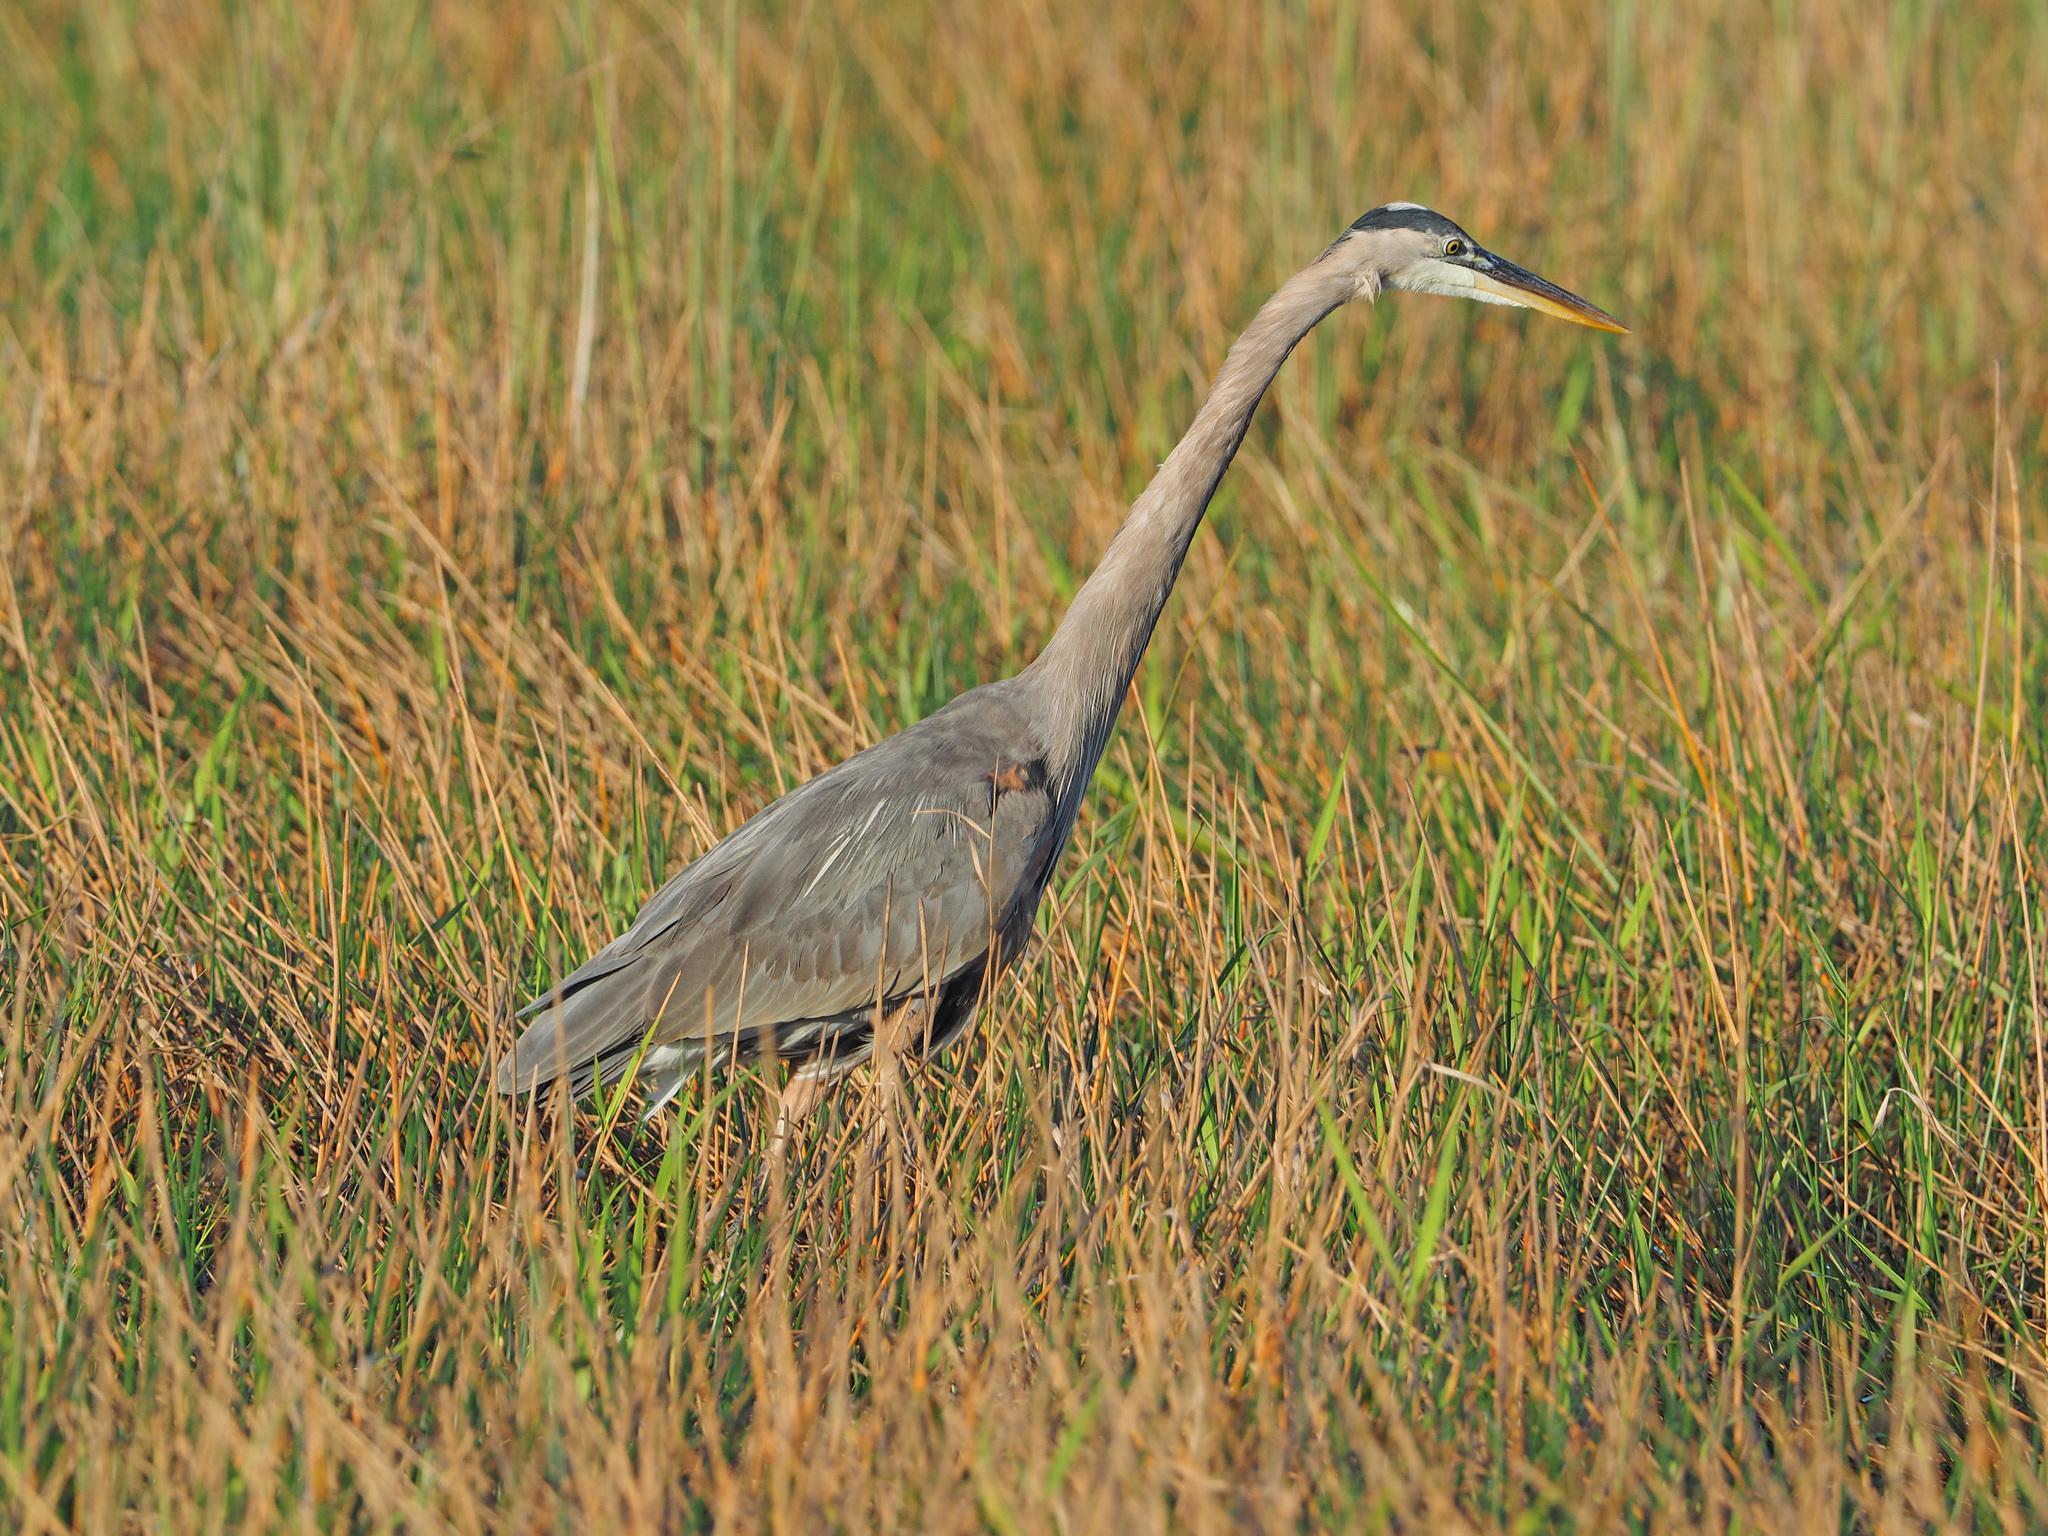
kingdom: Animalia
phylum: Chordata
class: Aves
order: Pelecaniformes
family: Ardeidae
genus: Ardea
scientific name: Ardea herodias
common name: Great blue heron
